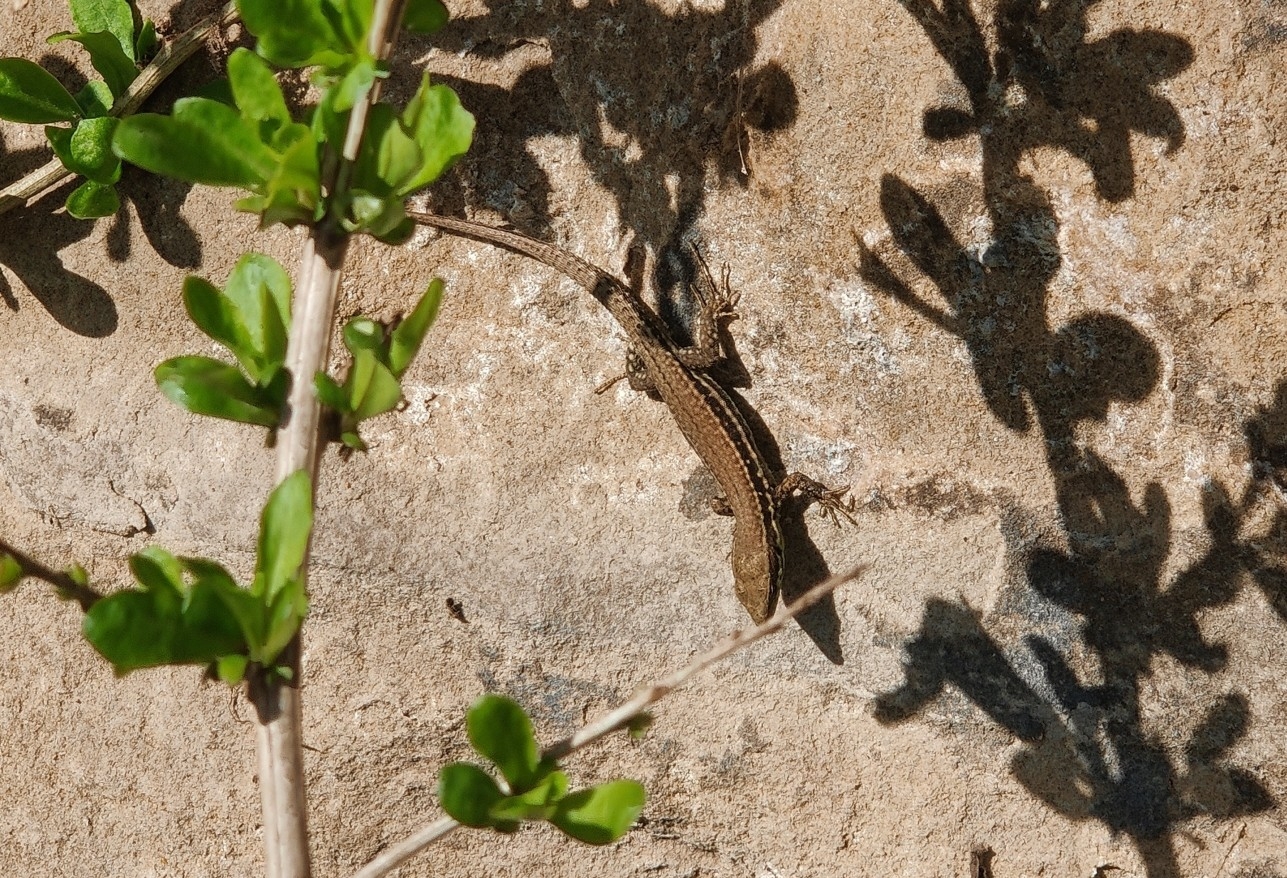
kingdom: Animalia
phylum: Chordata
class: Squamata
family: Lacertidae
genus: Podarcis
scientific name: Podarcis muralis
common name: Common wall lizard
